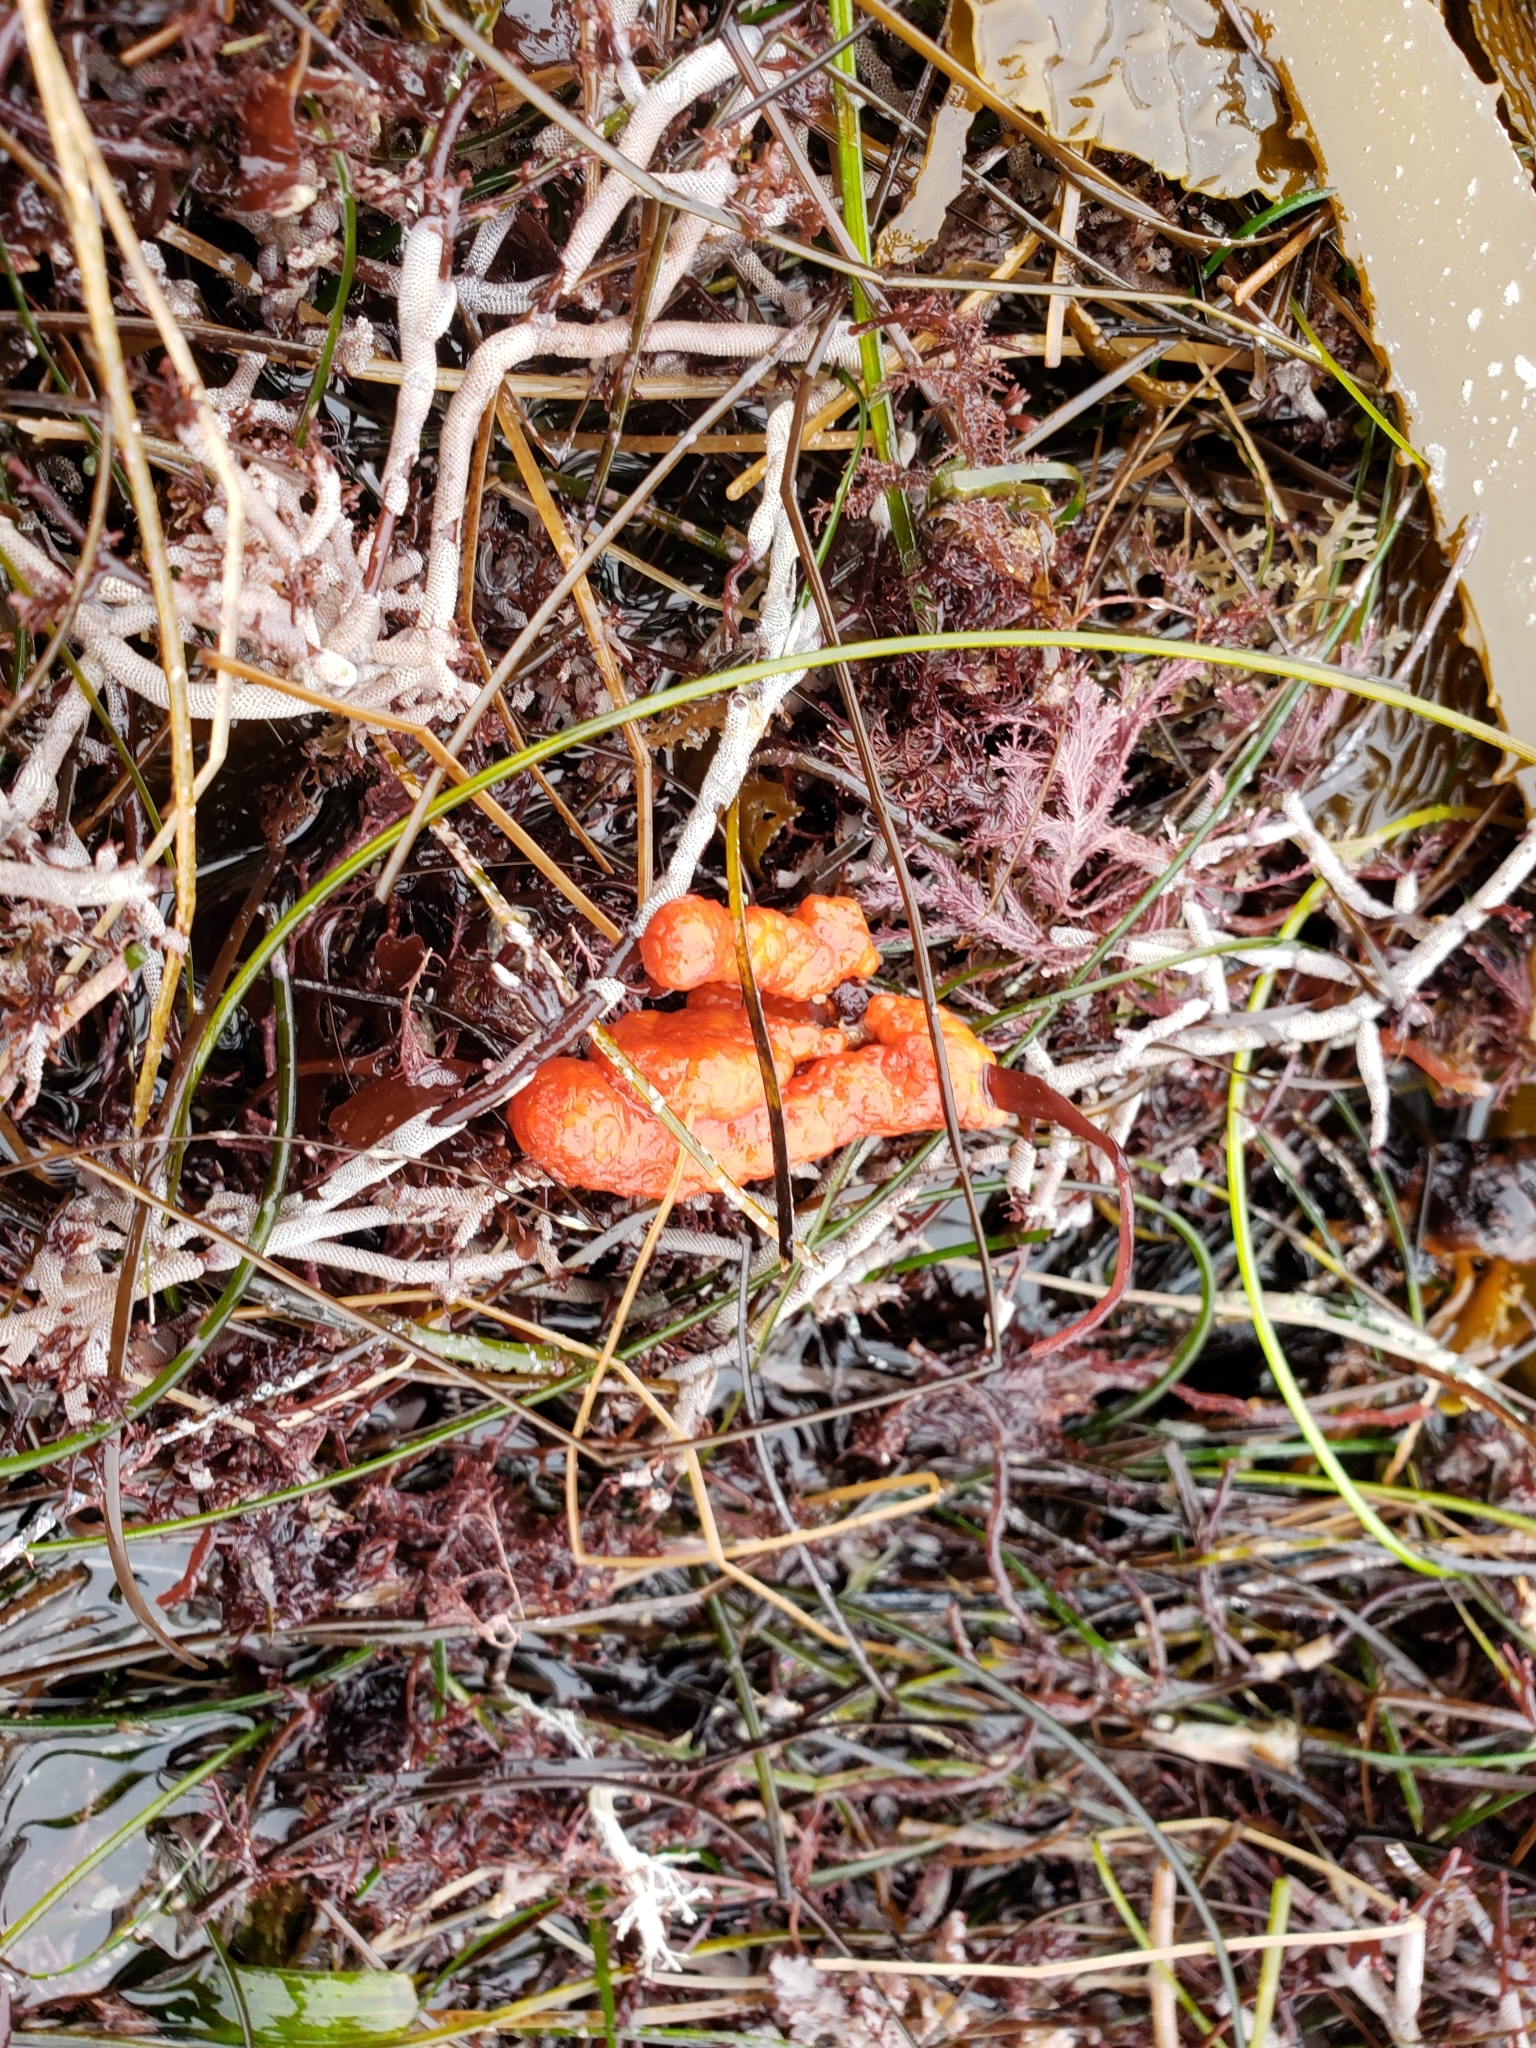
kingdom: Animalia
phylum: Chordata
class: Ascidiacea
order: Stolidobranchia
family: Styelidae
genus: Metandrocarpa
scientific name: Metandrocarpa dura
